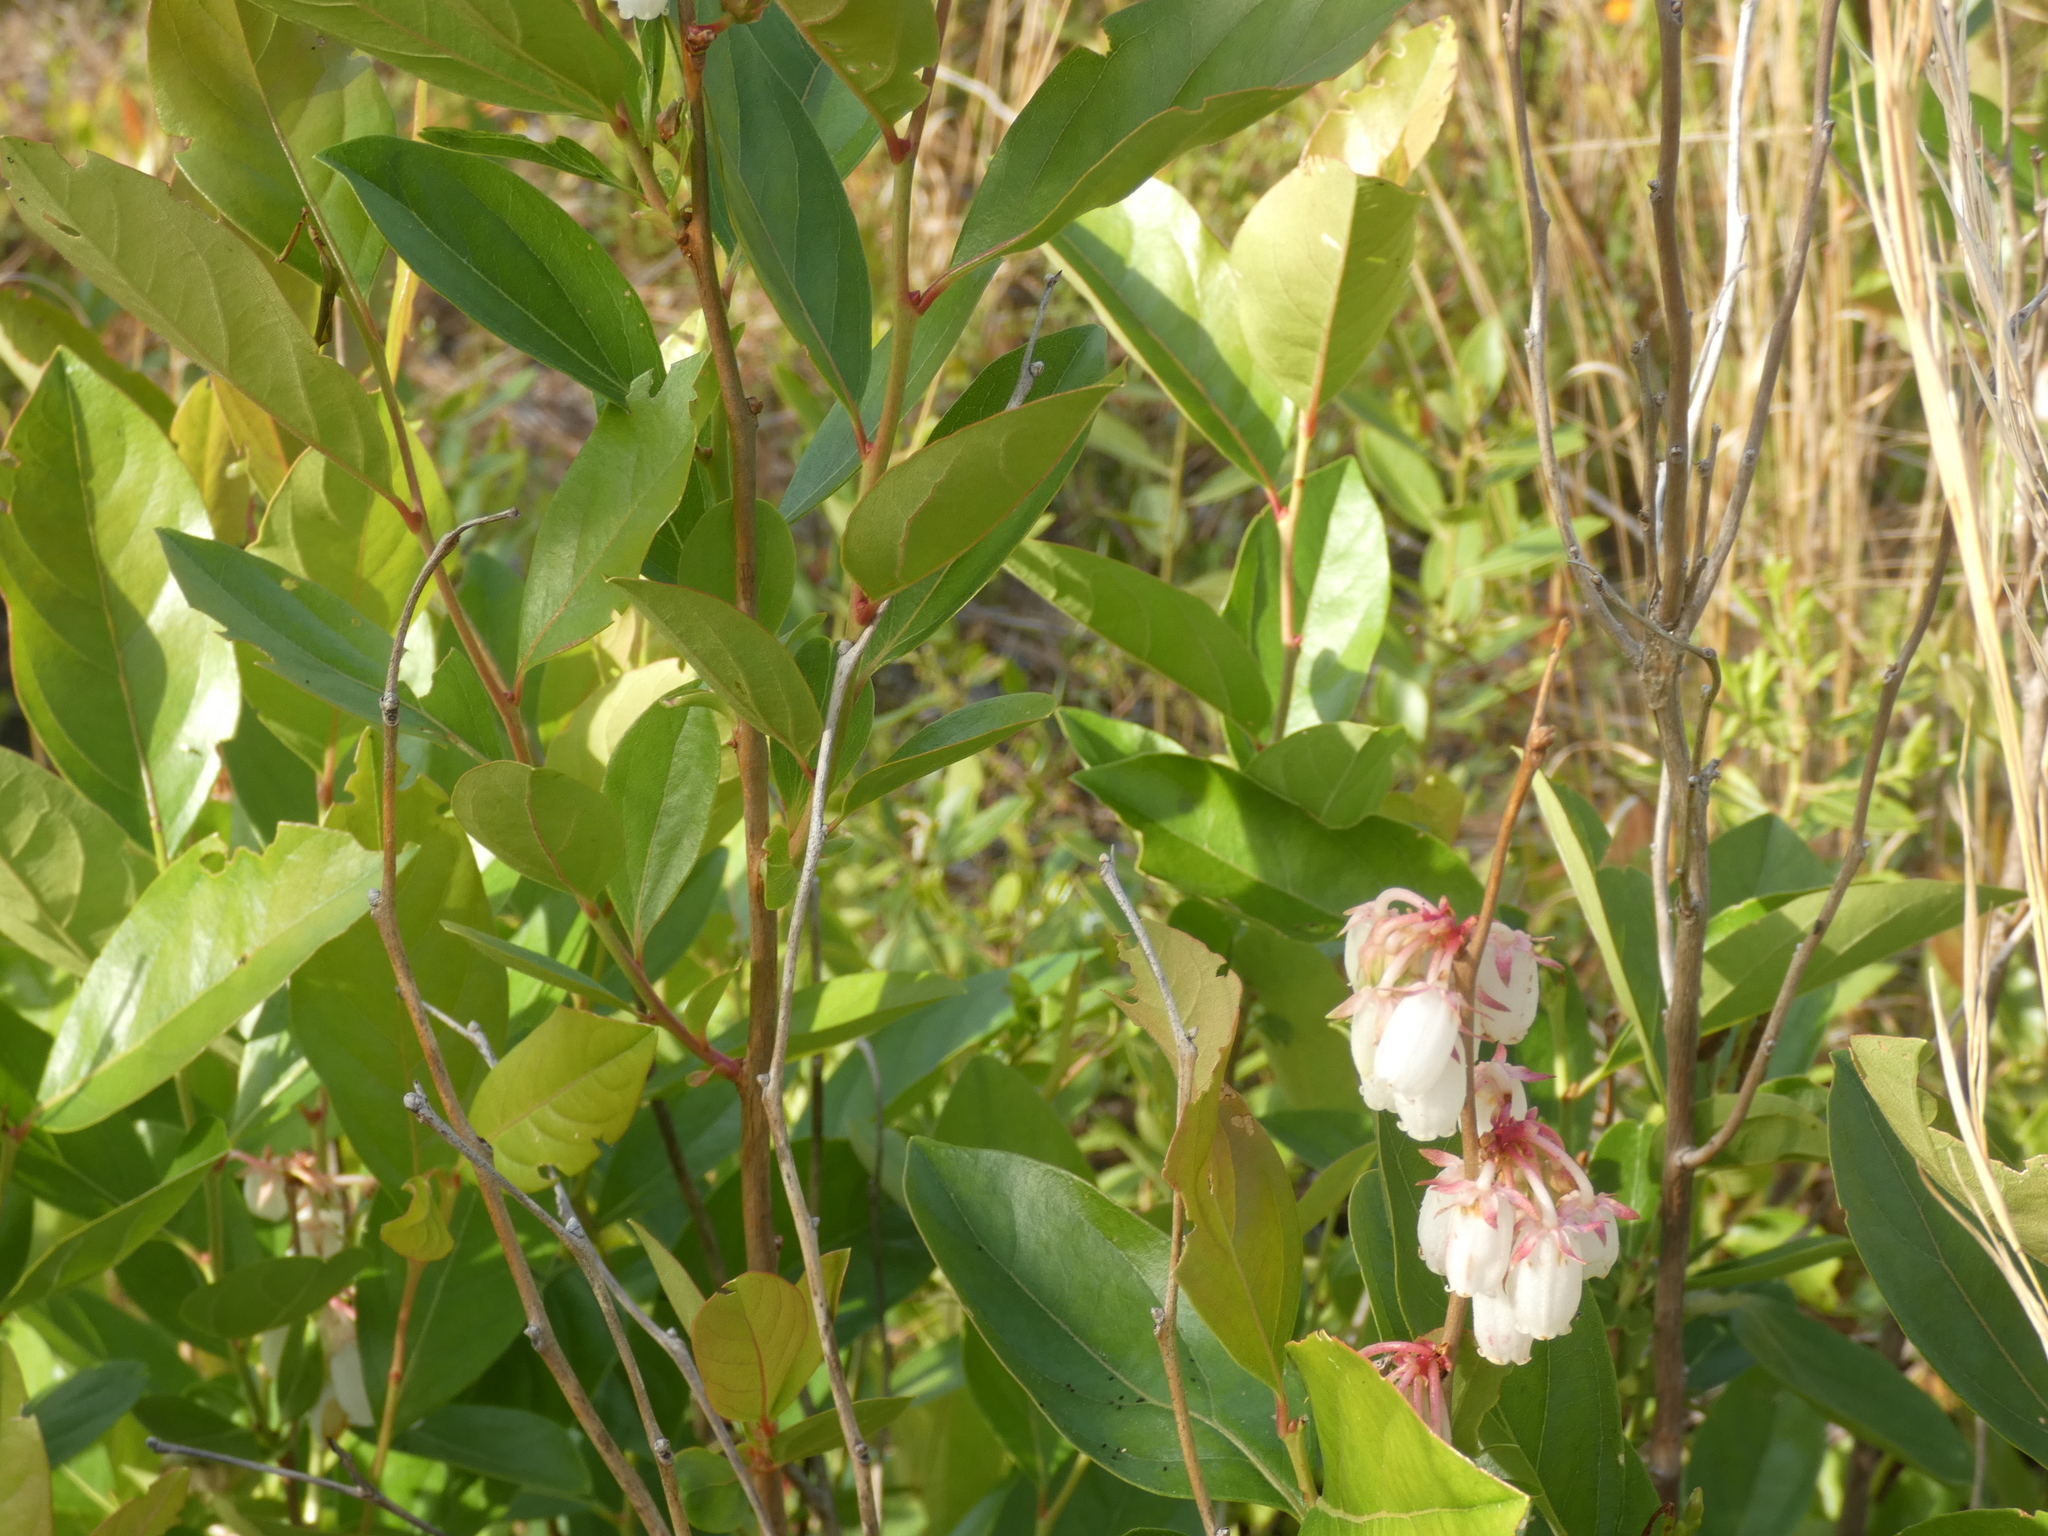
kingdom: Plantae
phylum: Tracheophyta
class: Magnoliopsida
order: Ericales
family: Ericaceae
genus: Lyonia
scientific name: Lyonia mariana
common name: Staggerbush
